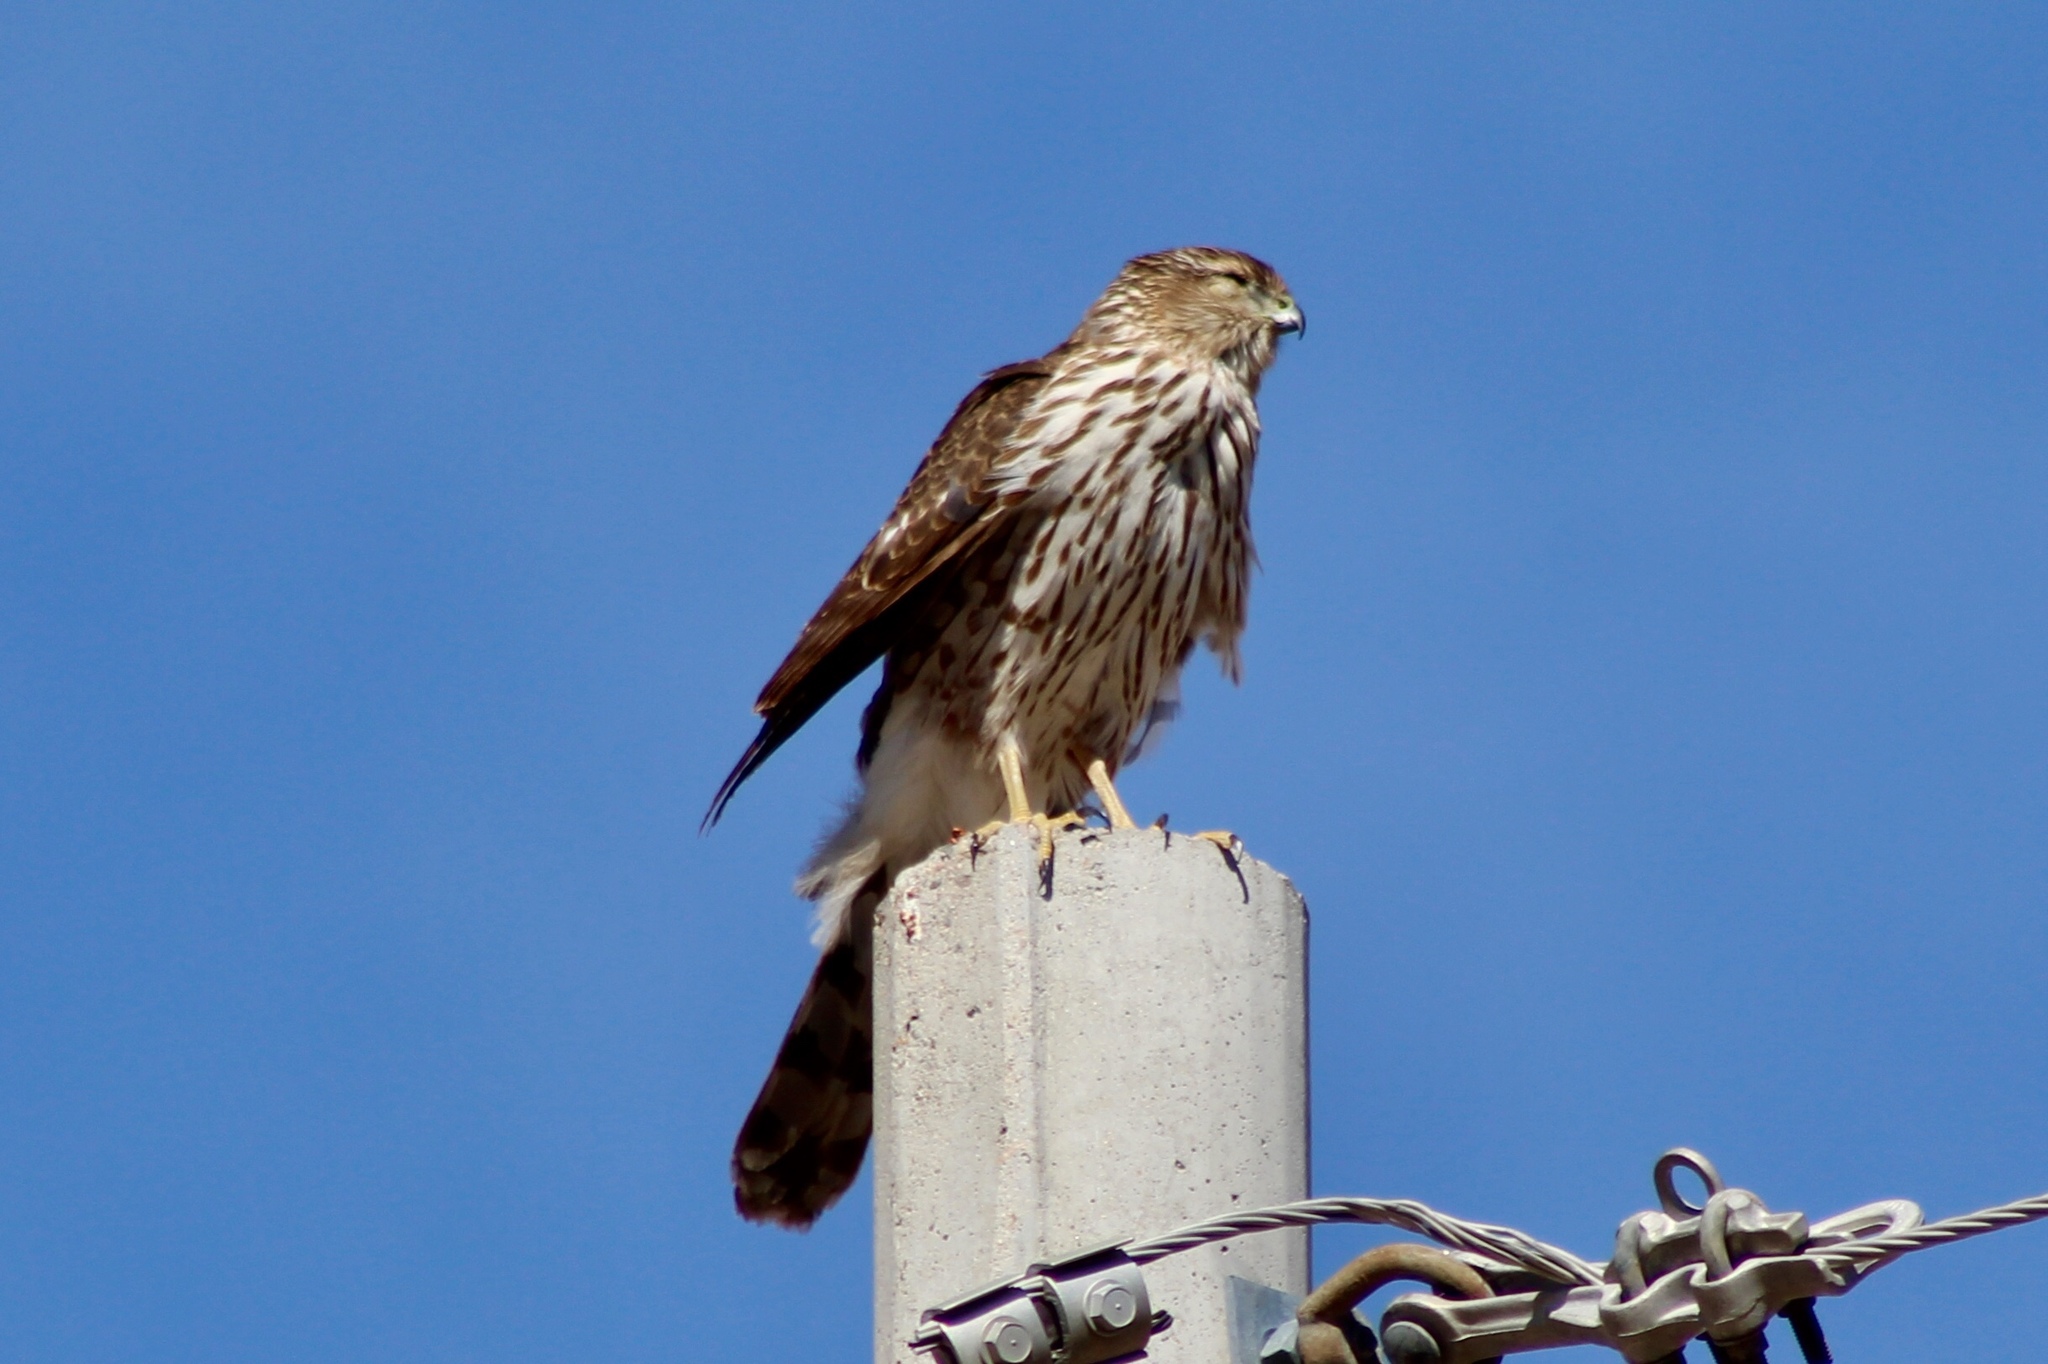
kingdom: Animalia
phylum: Chordata
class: Aves
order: Accipitriformes
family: Accipitridae
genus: Accipiter
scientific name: Accipiter cooperii
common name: Cooper's hawk
